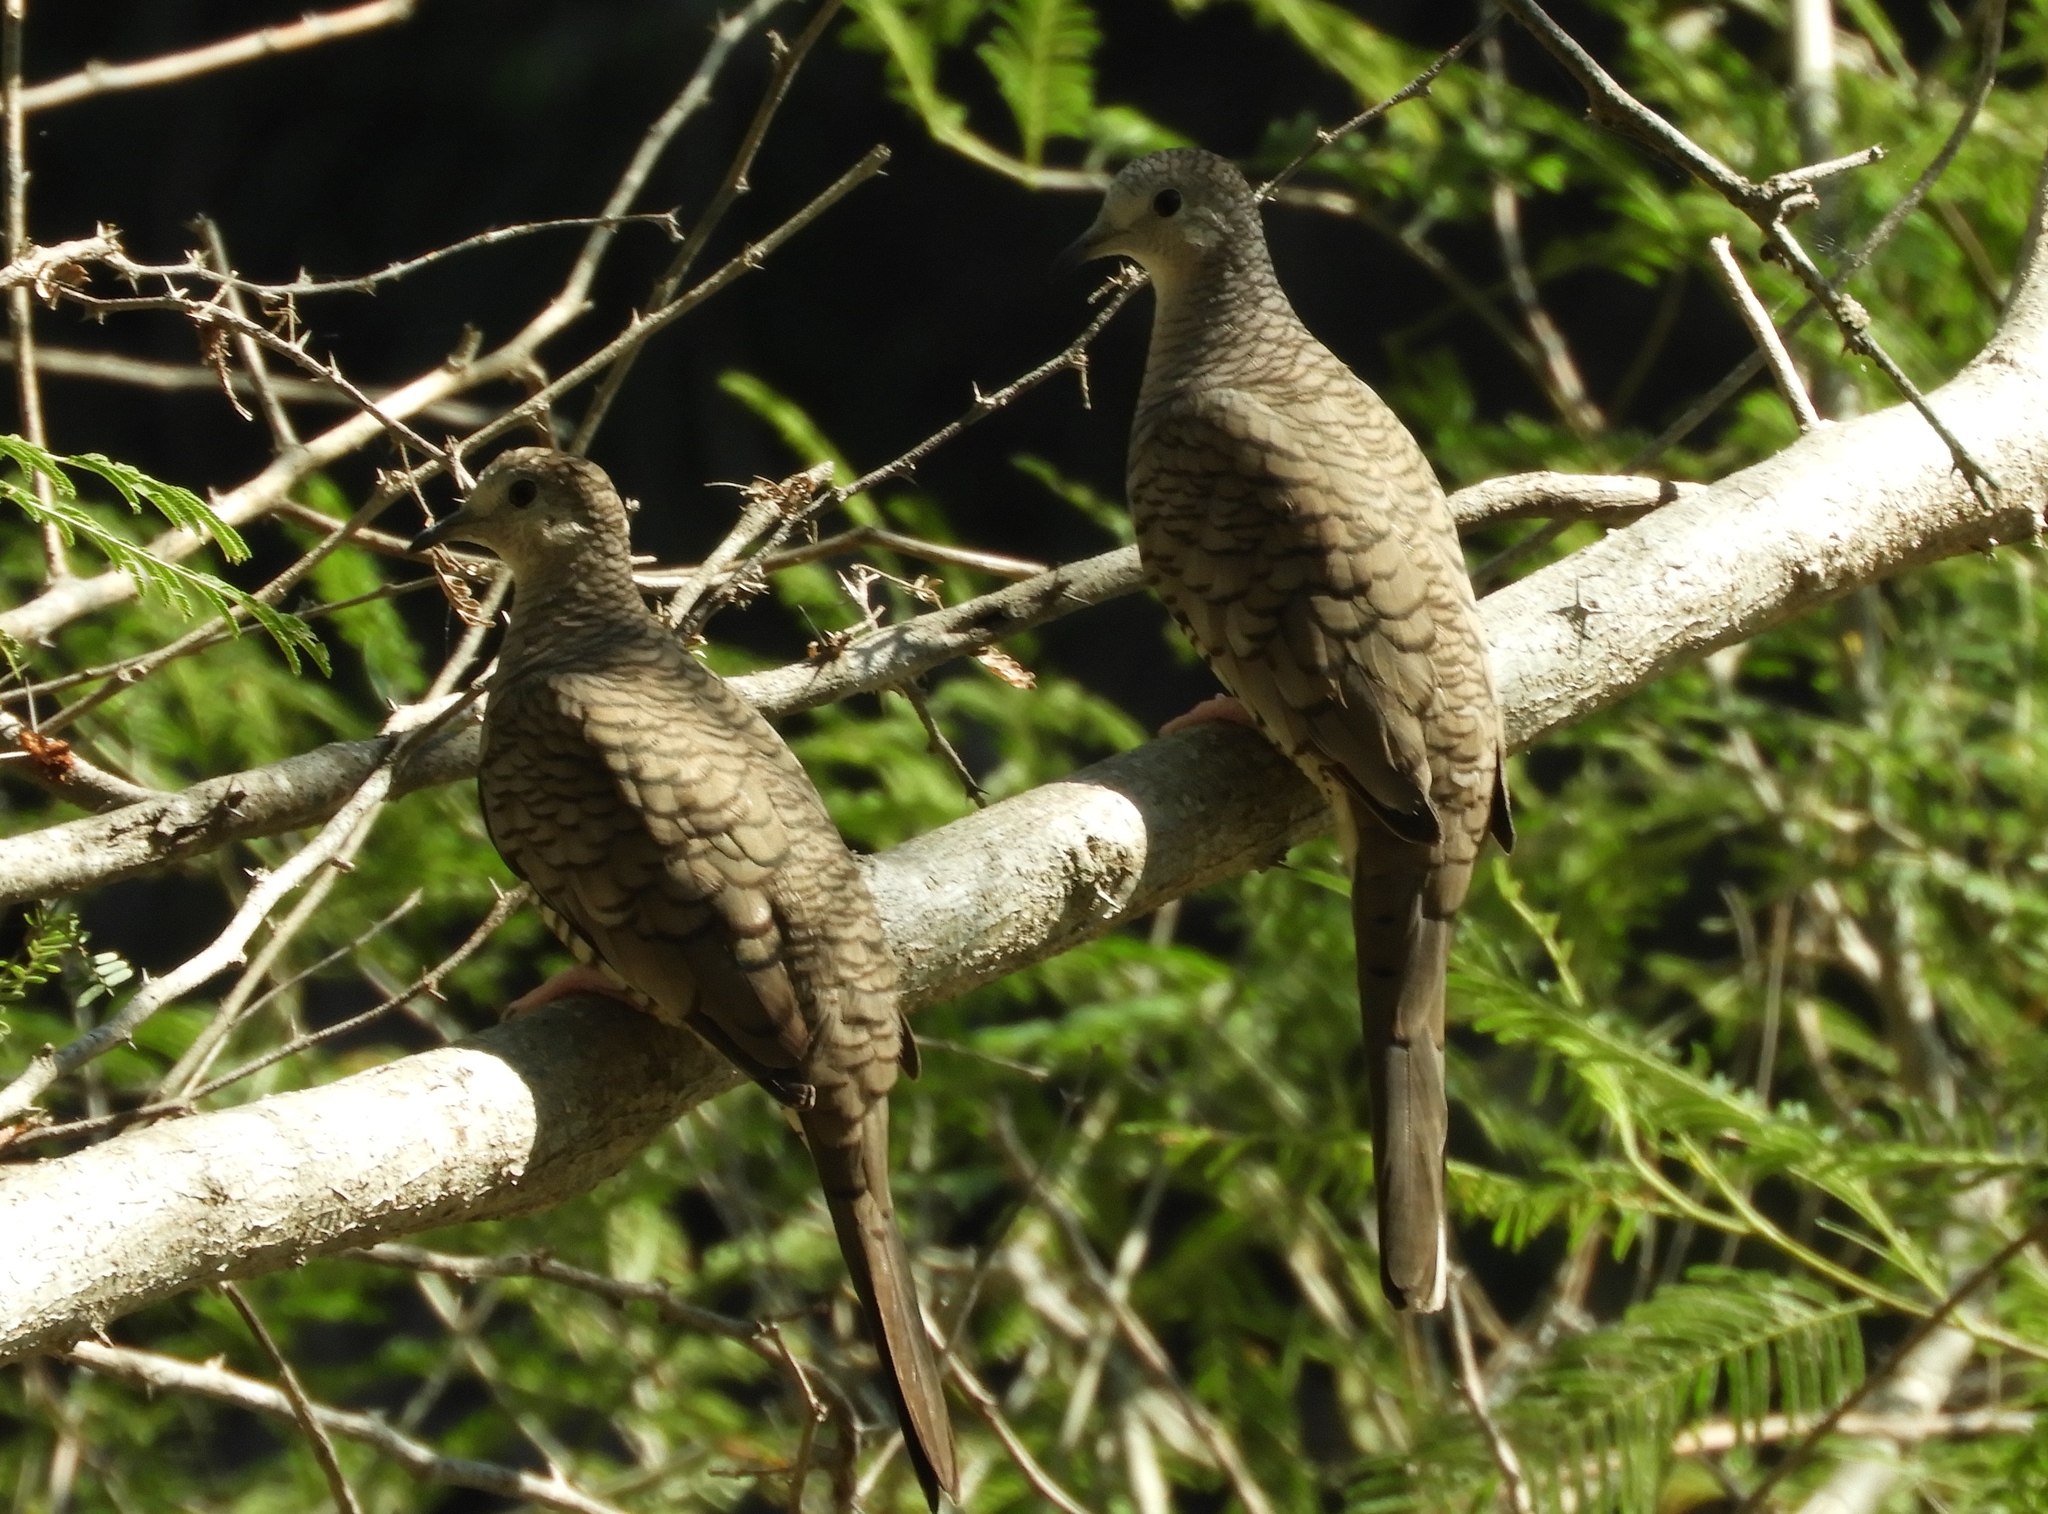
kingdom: Animalia
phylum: Chordata
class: Aves
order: Columbiformes
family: Columbidae
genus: Columbina
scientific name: Columbina inca
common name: Inca dove
